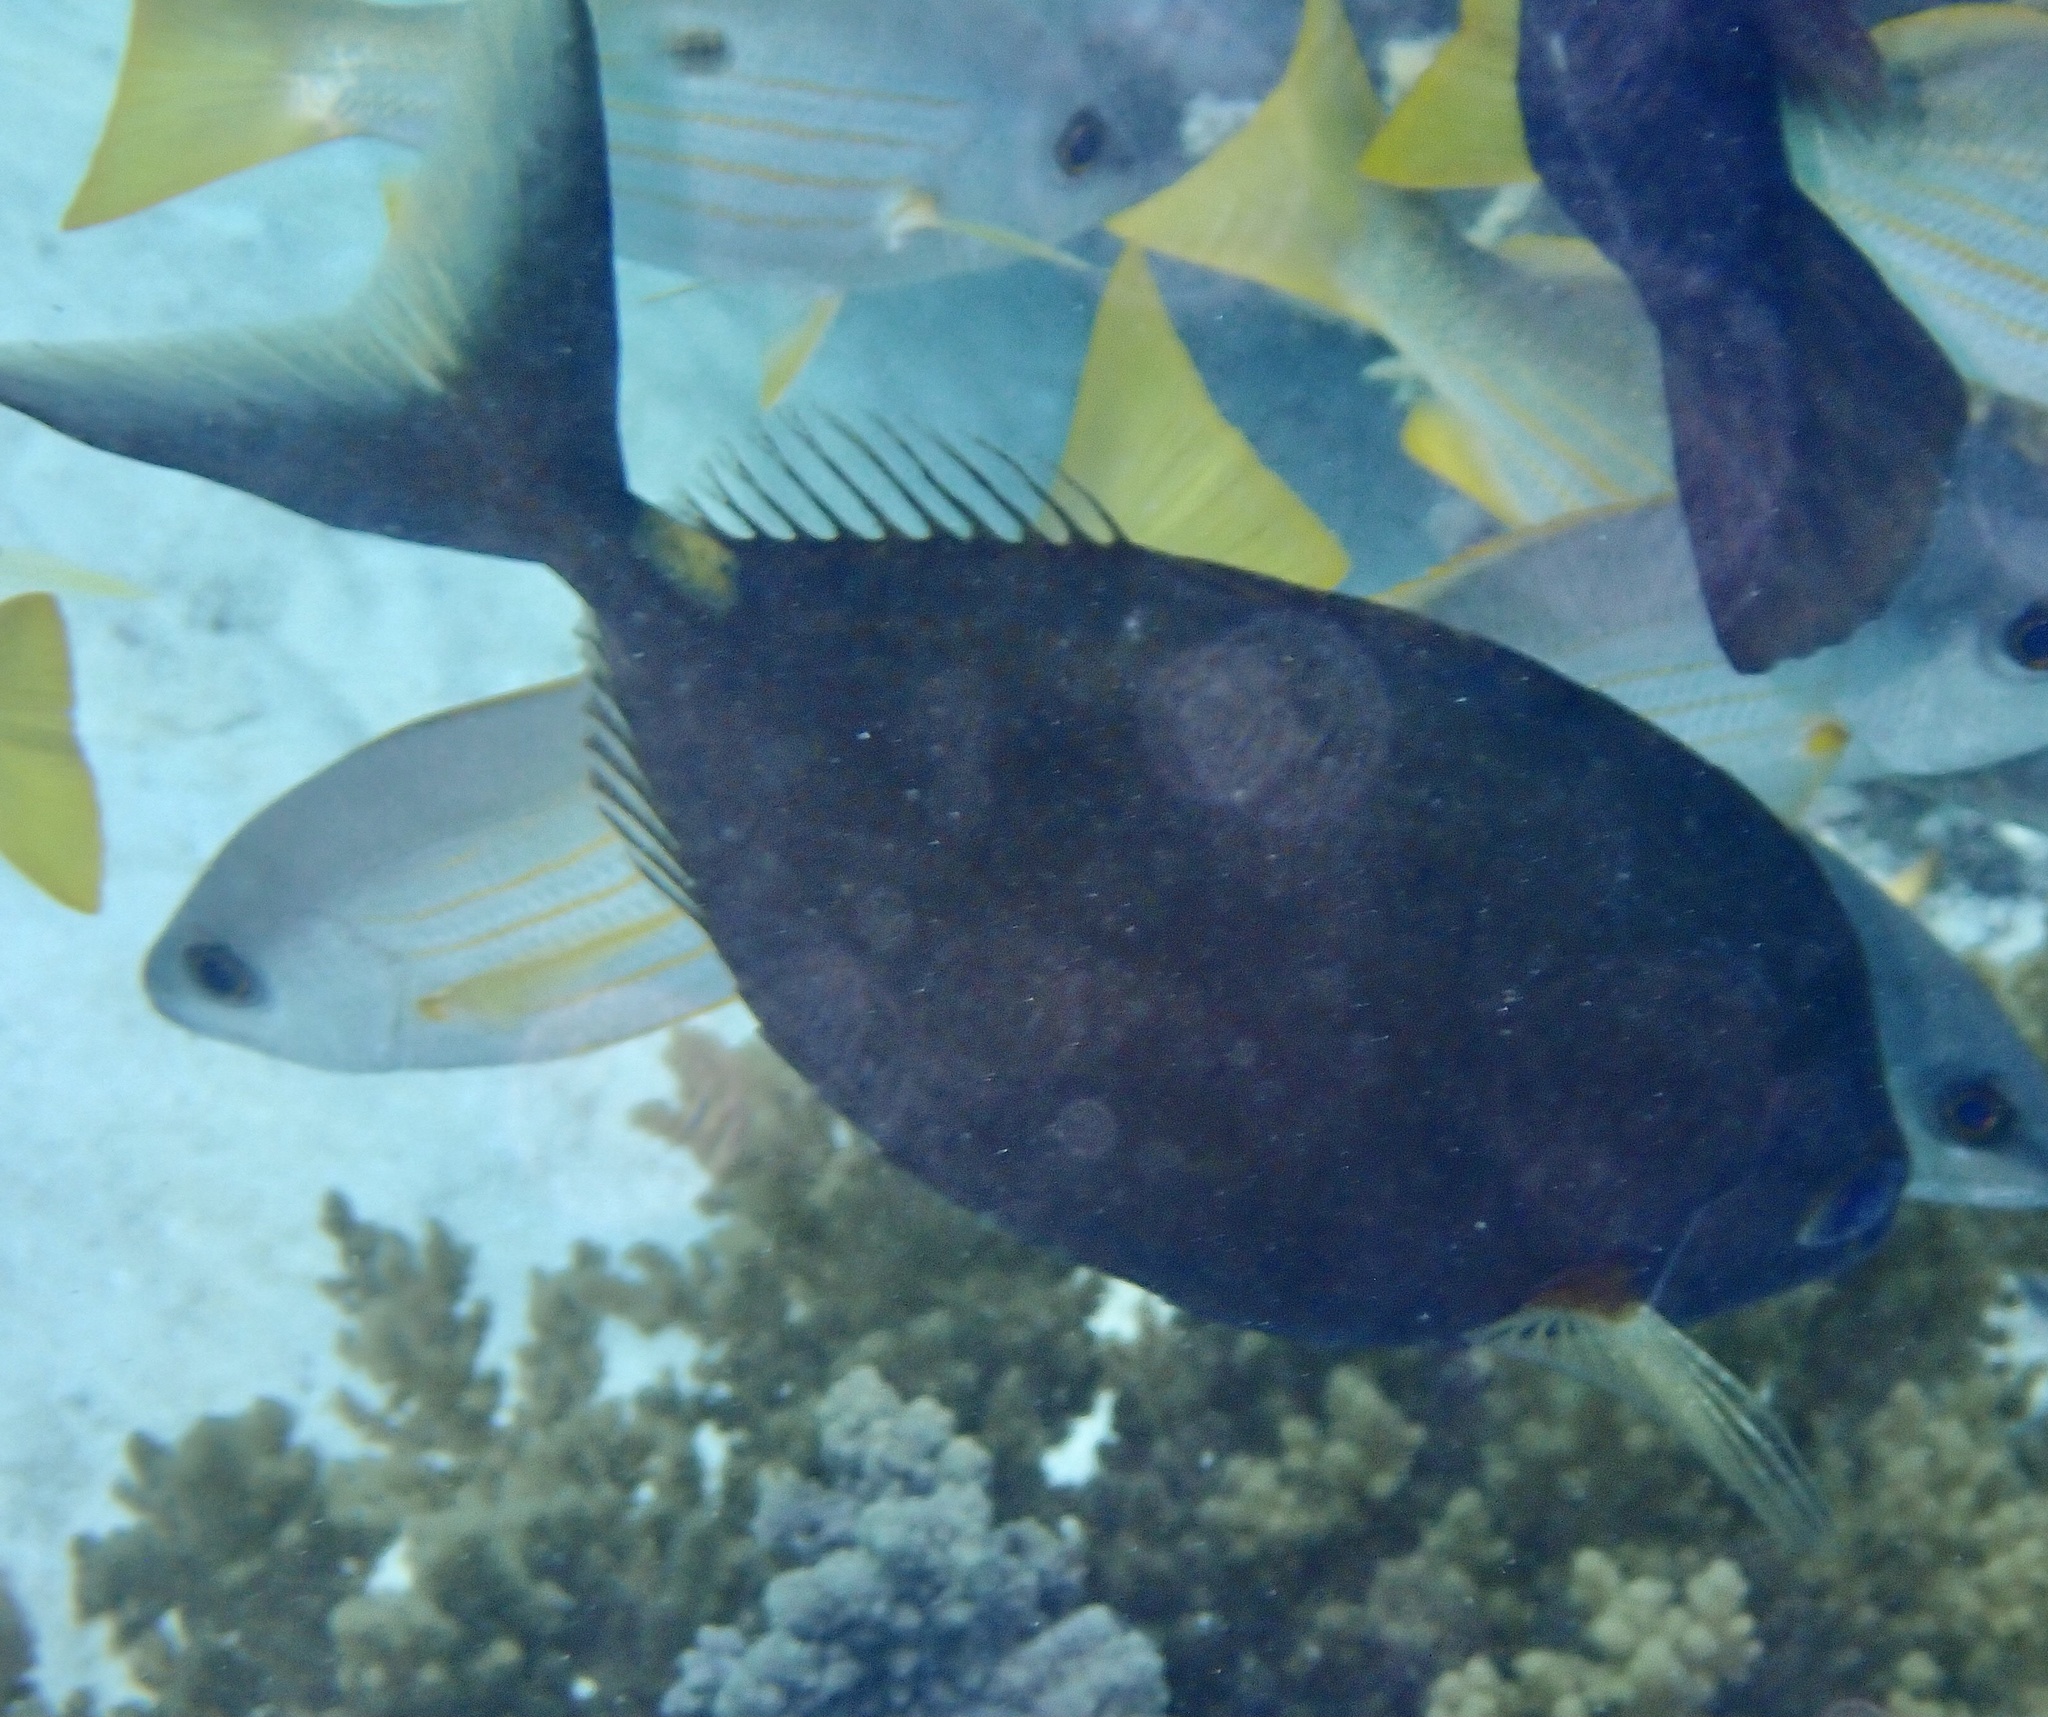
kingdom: Animalia
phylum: Chordata
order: Perciformes
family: Siganidae
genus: Siganus
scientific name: Siganus argenteus
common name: Forktail rabbitfish
